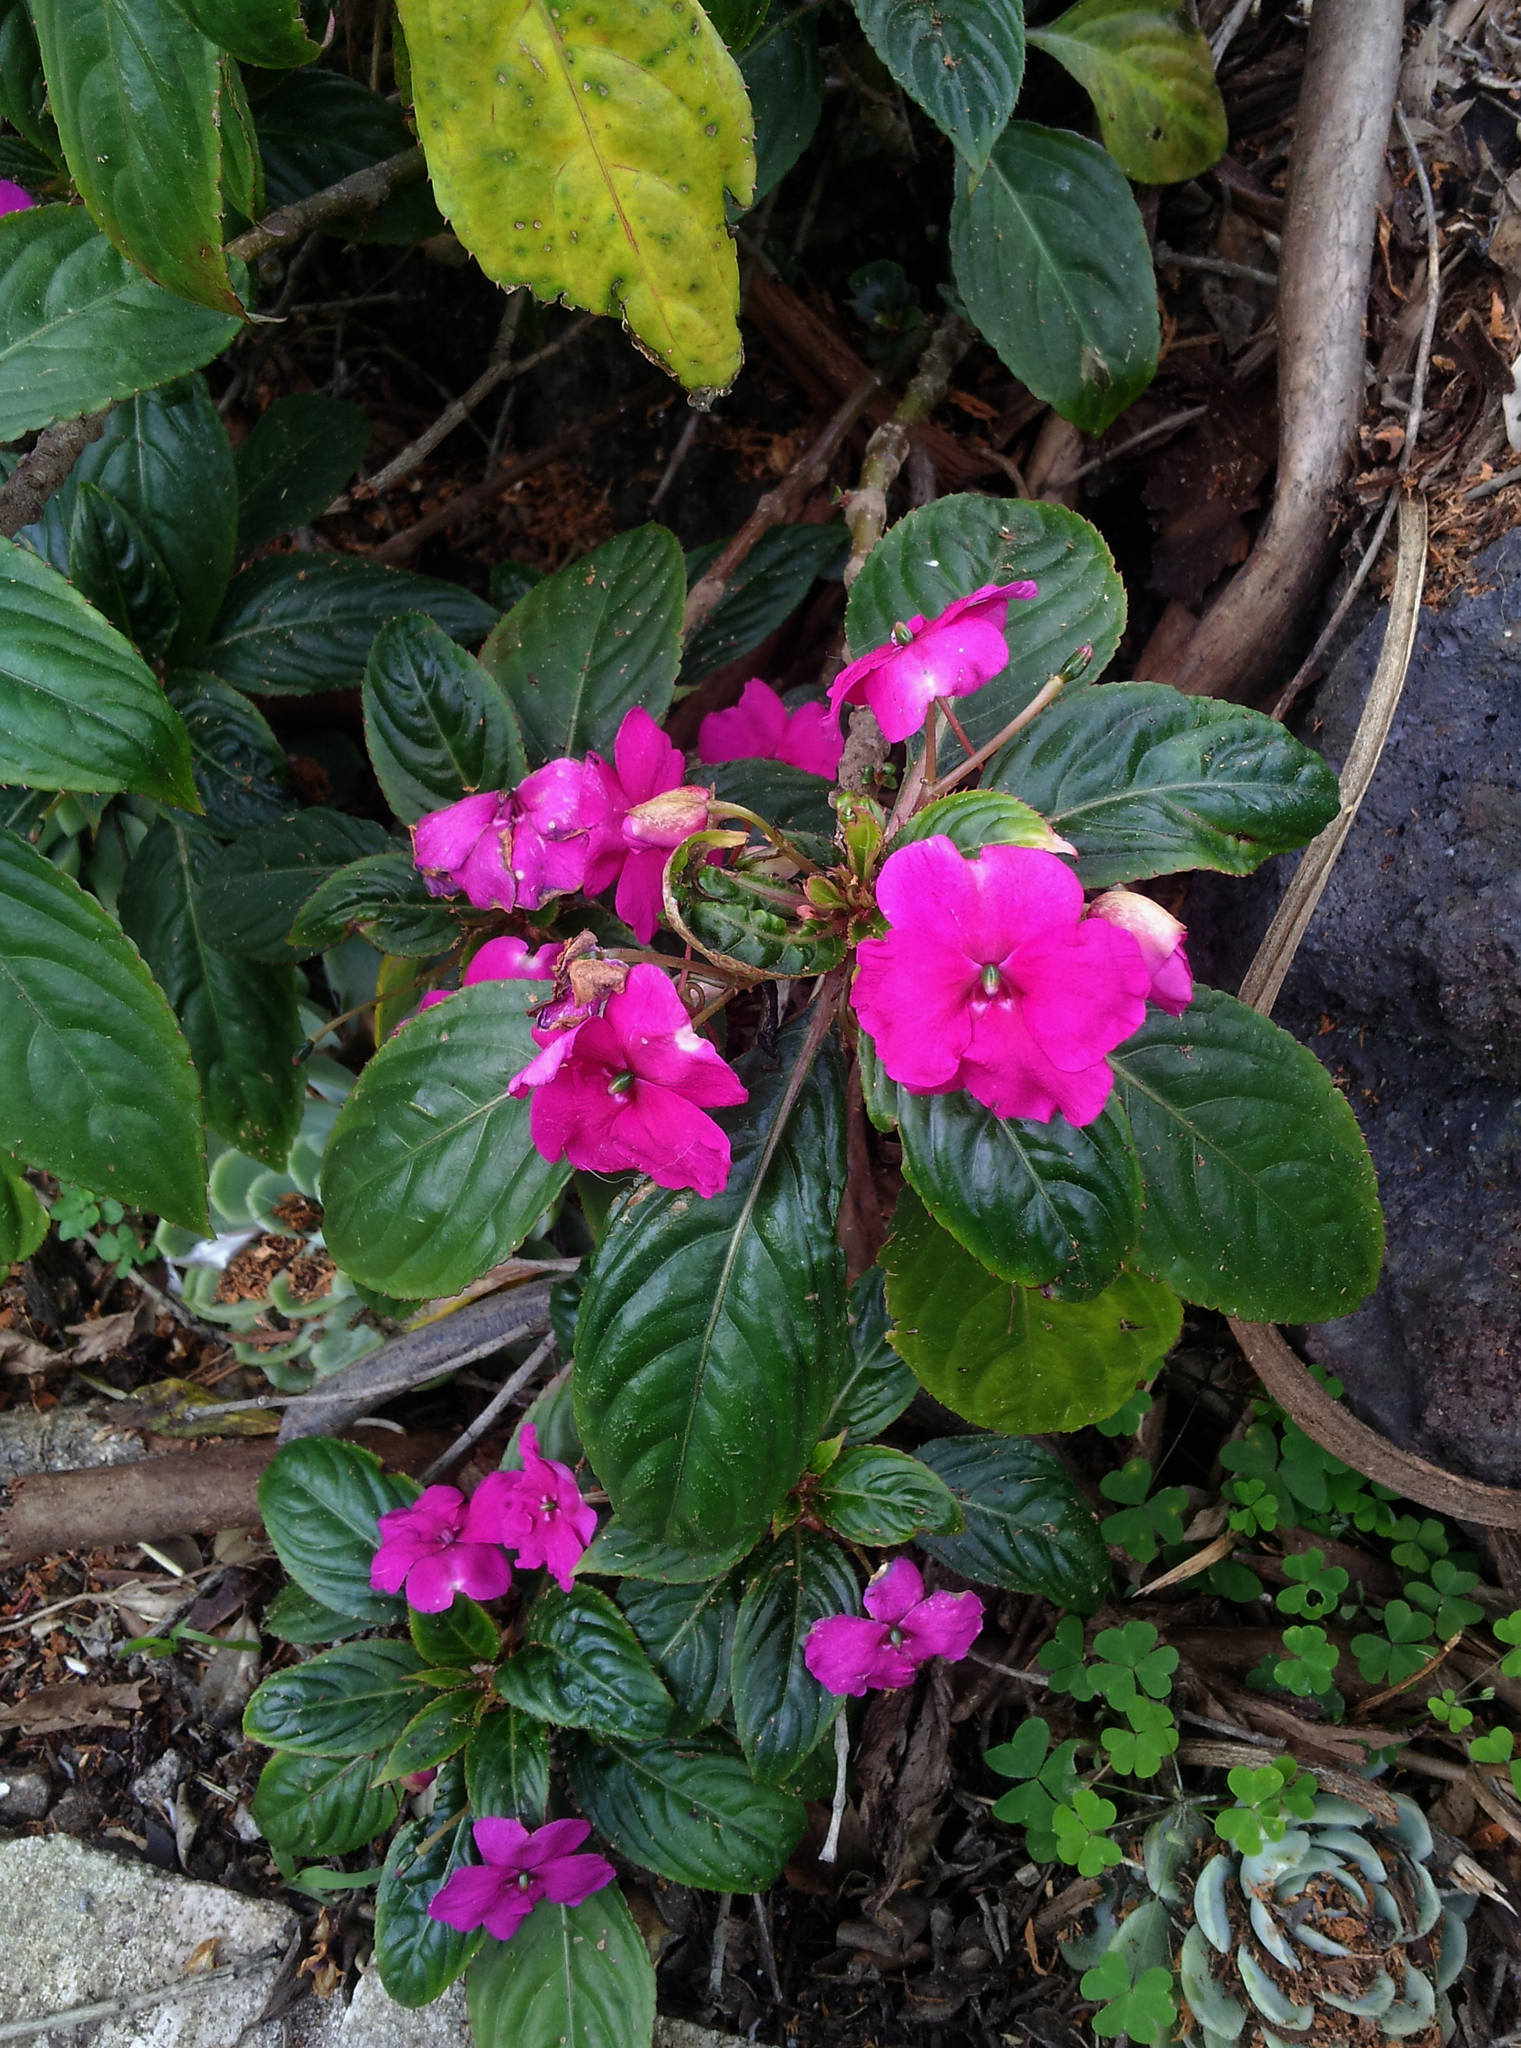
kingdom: Plantae
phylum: Tracheophyta
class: Magnoliopsida
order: Ericales
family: Balsaminaceae
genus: Impatiens
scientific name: Impatiens walleriana
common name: Buzzy lizzy
